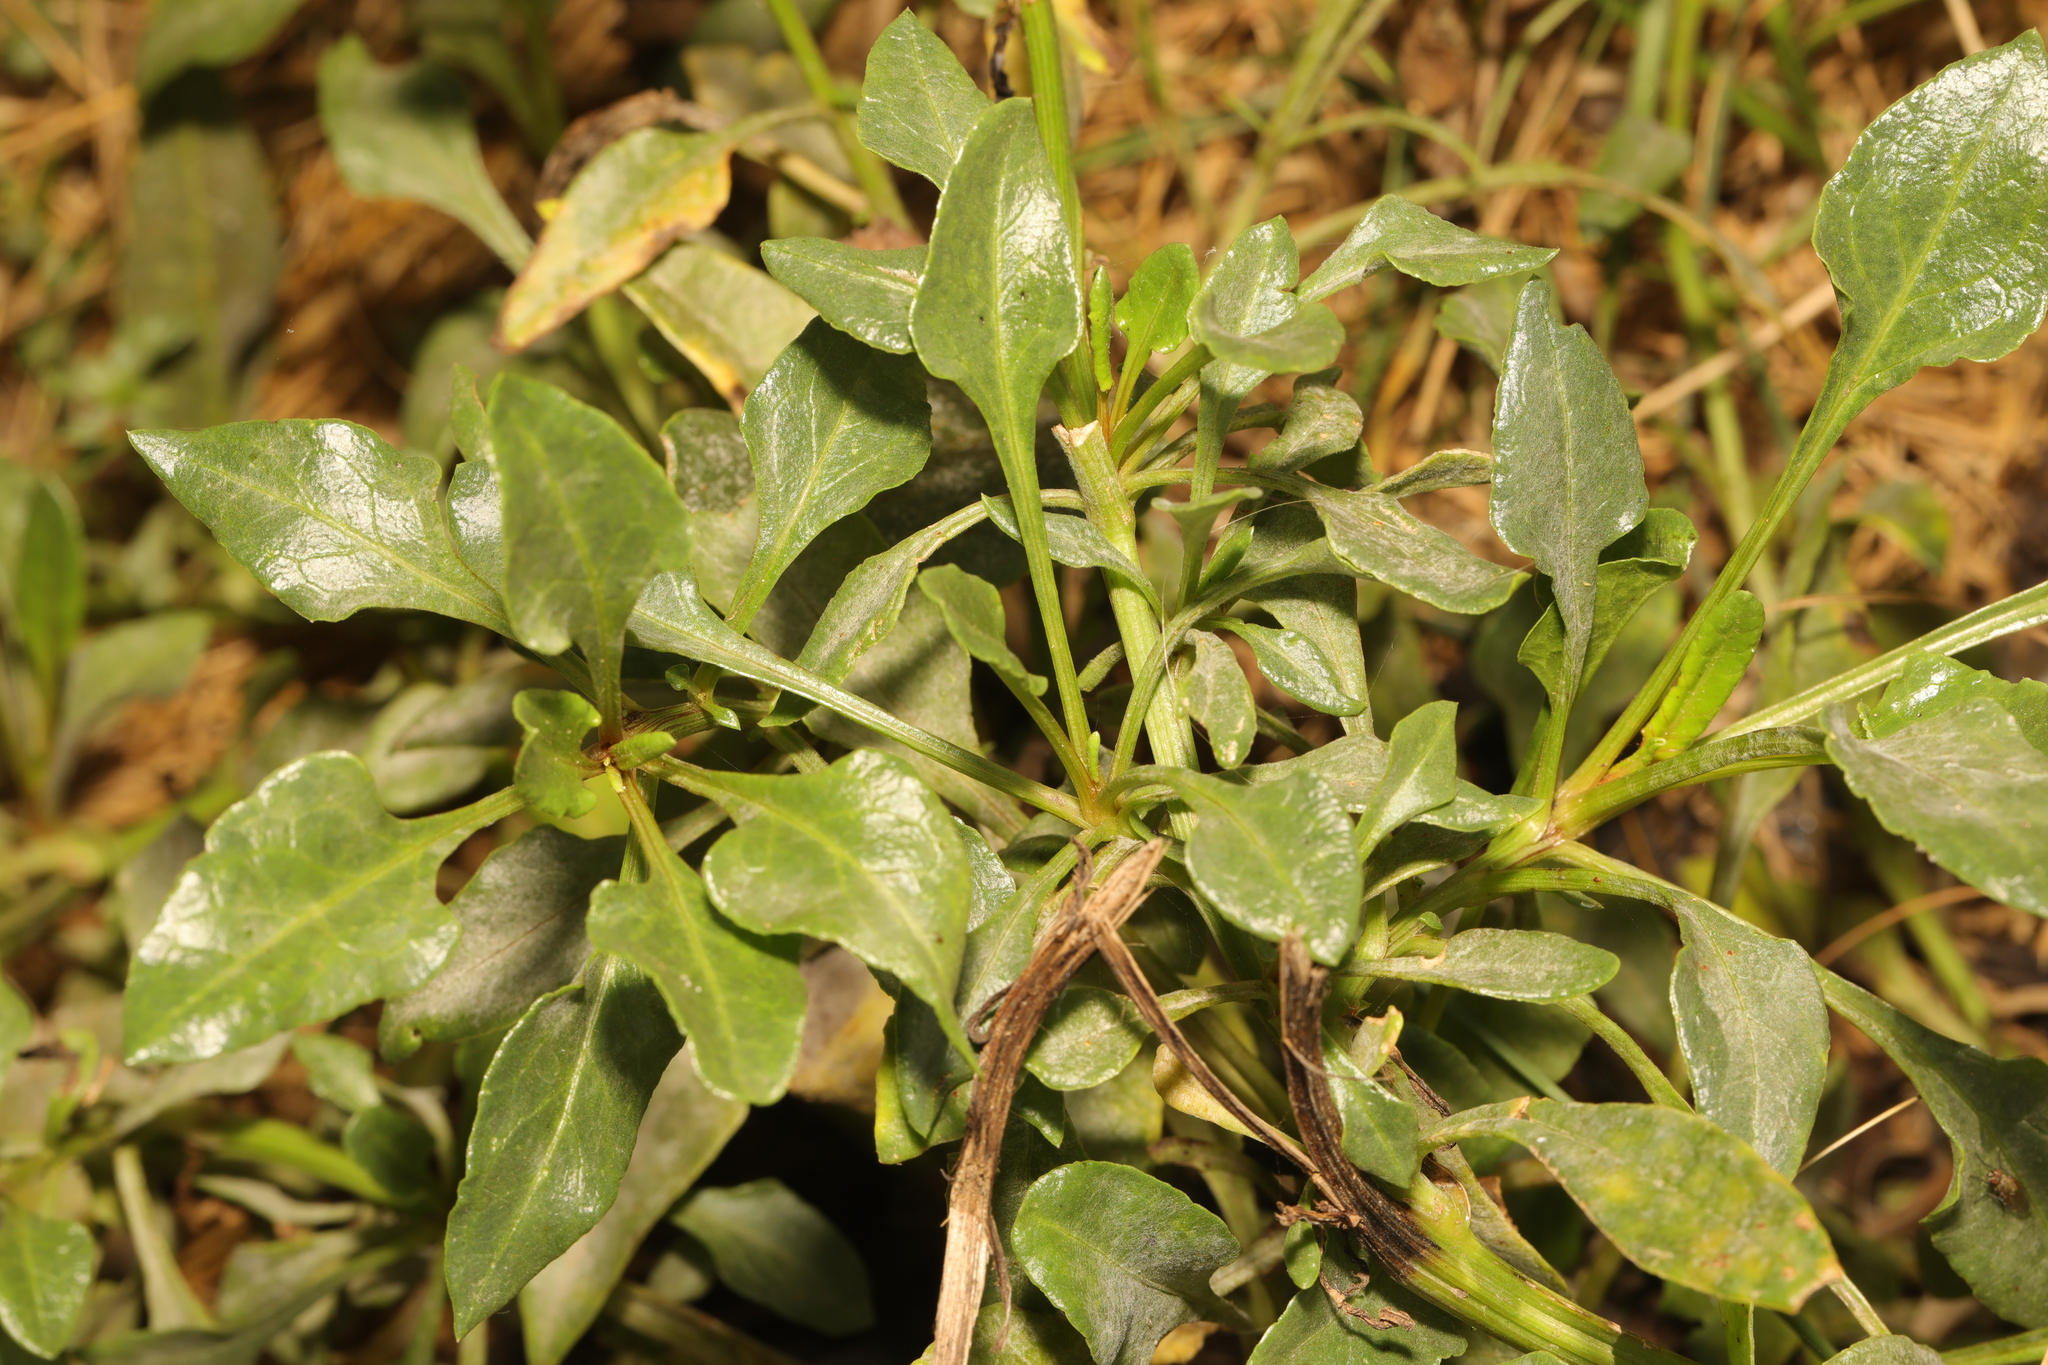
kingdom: Plantae
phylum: Tracheophyta
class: Magnoliopsida
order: Caryophyllales
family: Amaranthaceae
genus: Beta
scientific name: Beta vulgaris
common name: Beet
